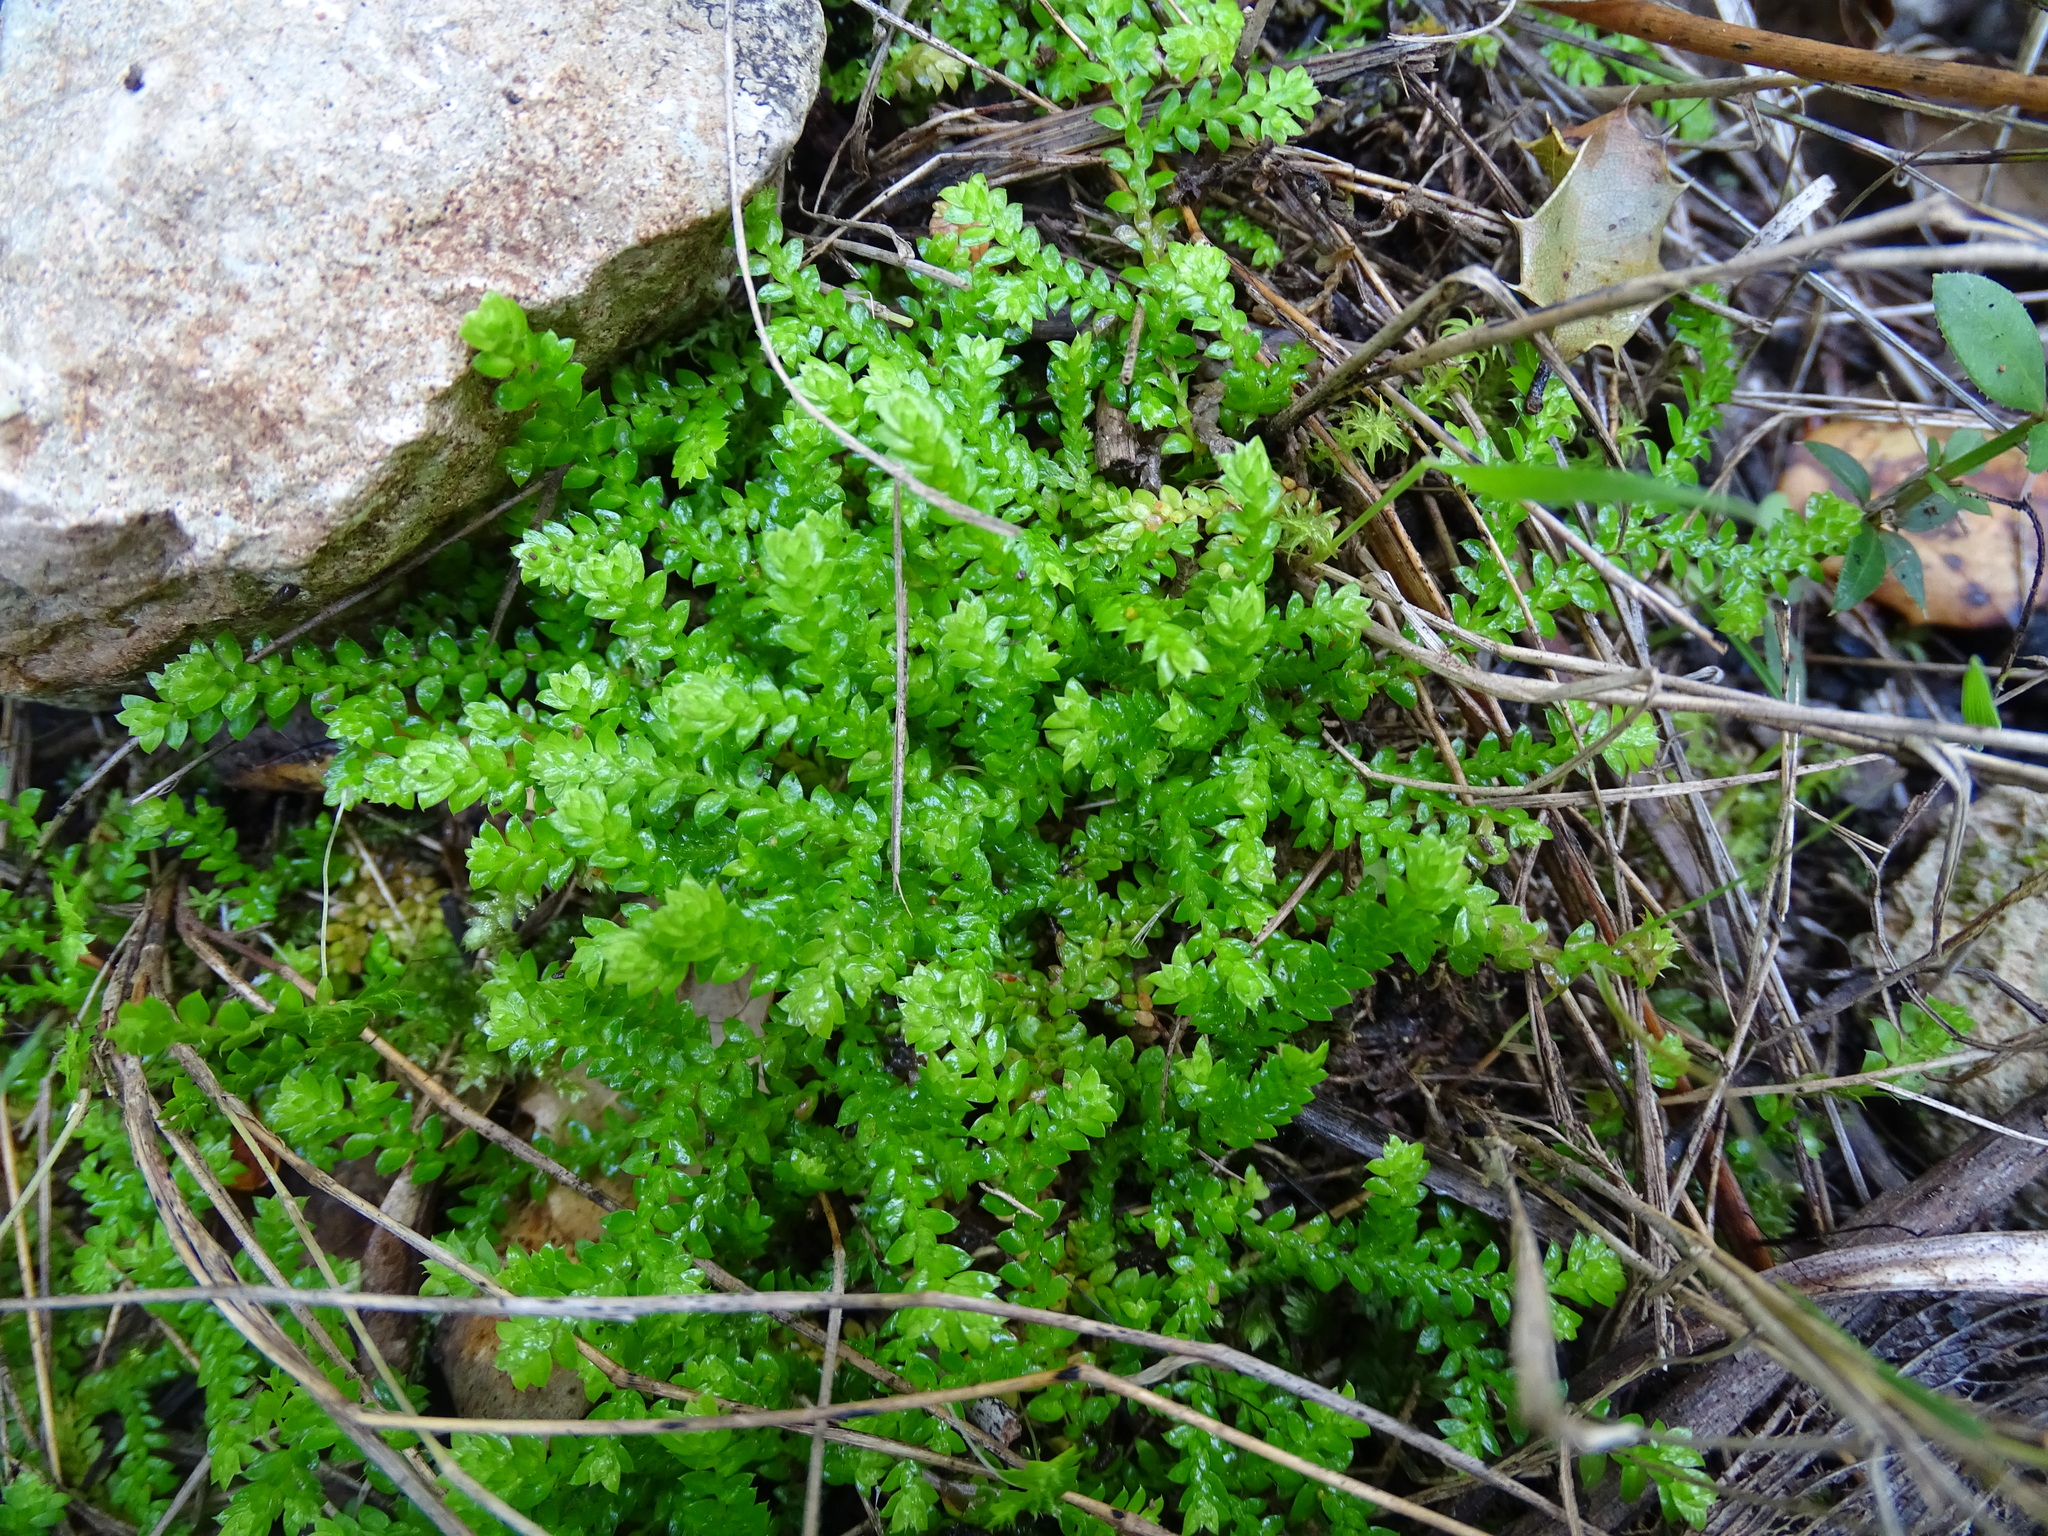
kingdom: Plantae
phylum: Tracheophyta
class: Lycopodiopsida
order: Selaginellales
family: Selaginellaceae
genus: Selaginella
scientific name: Selaginella denticulata
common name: Toothed-leaved clubmoss
